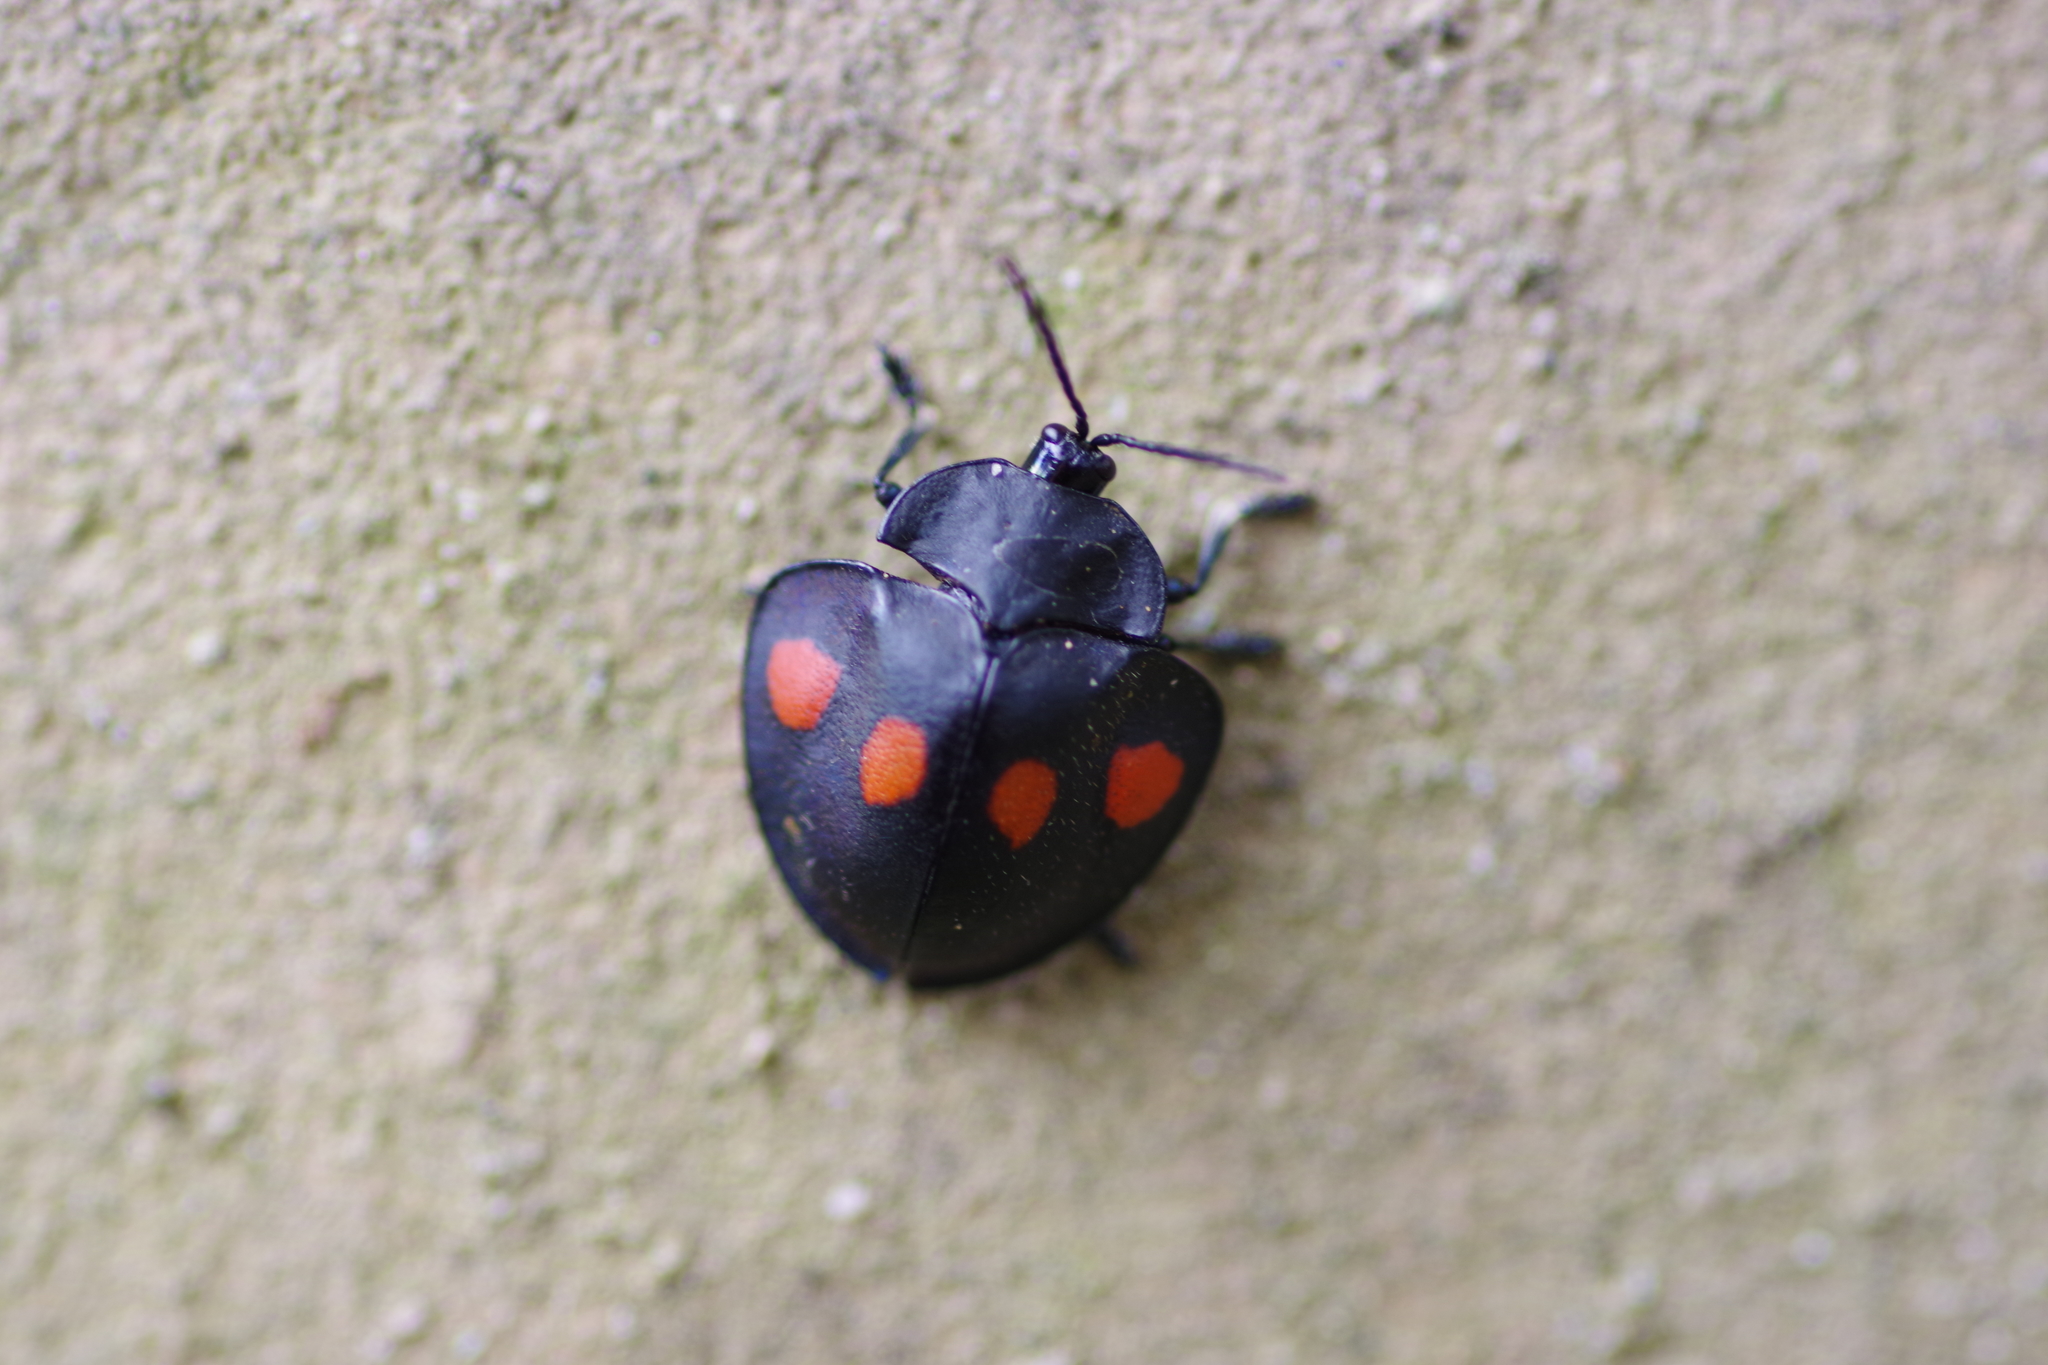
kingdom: Animalia
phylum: Arthropoda
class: Insecta
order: Coleoptera
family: Chrysomelidae
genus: Stolas
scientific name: Stolas lebasii
